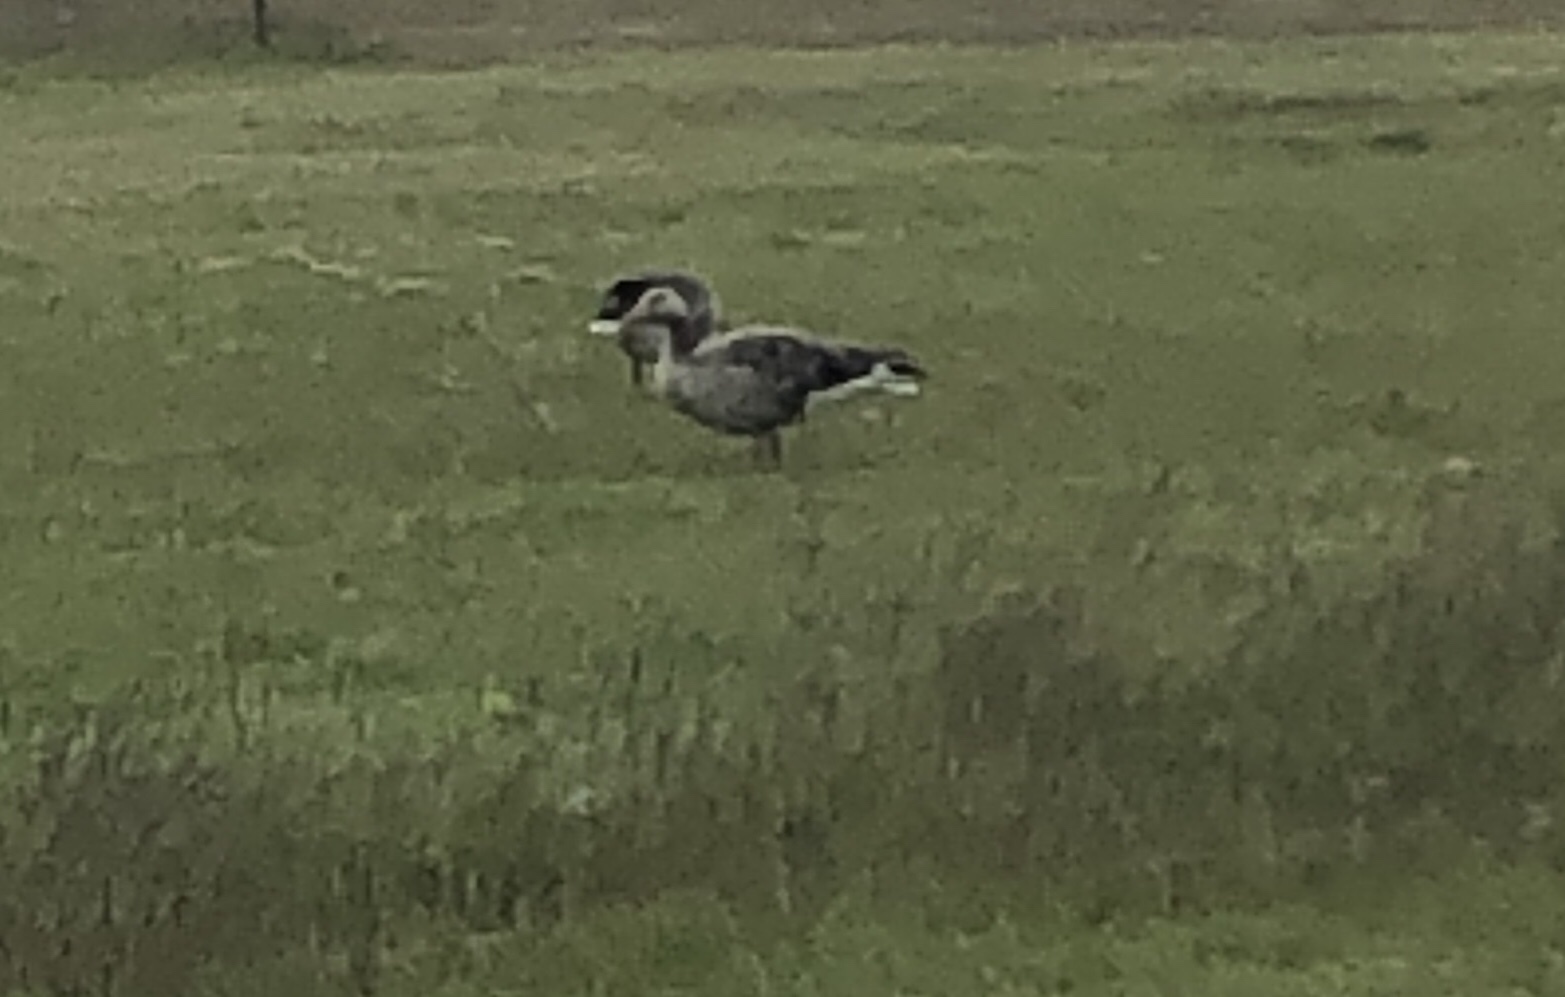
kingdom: Animalia
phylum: Chordata
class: Aves
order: Anseriformes
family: Anatidae
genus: Anser
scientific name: Anser anser
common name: Greylag goose
